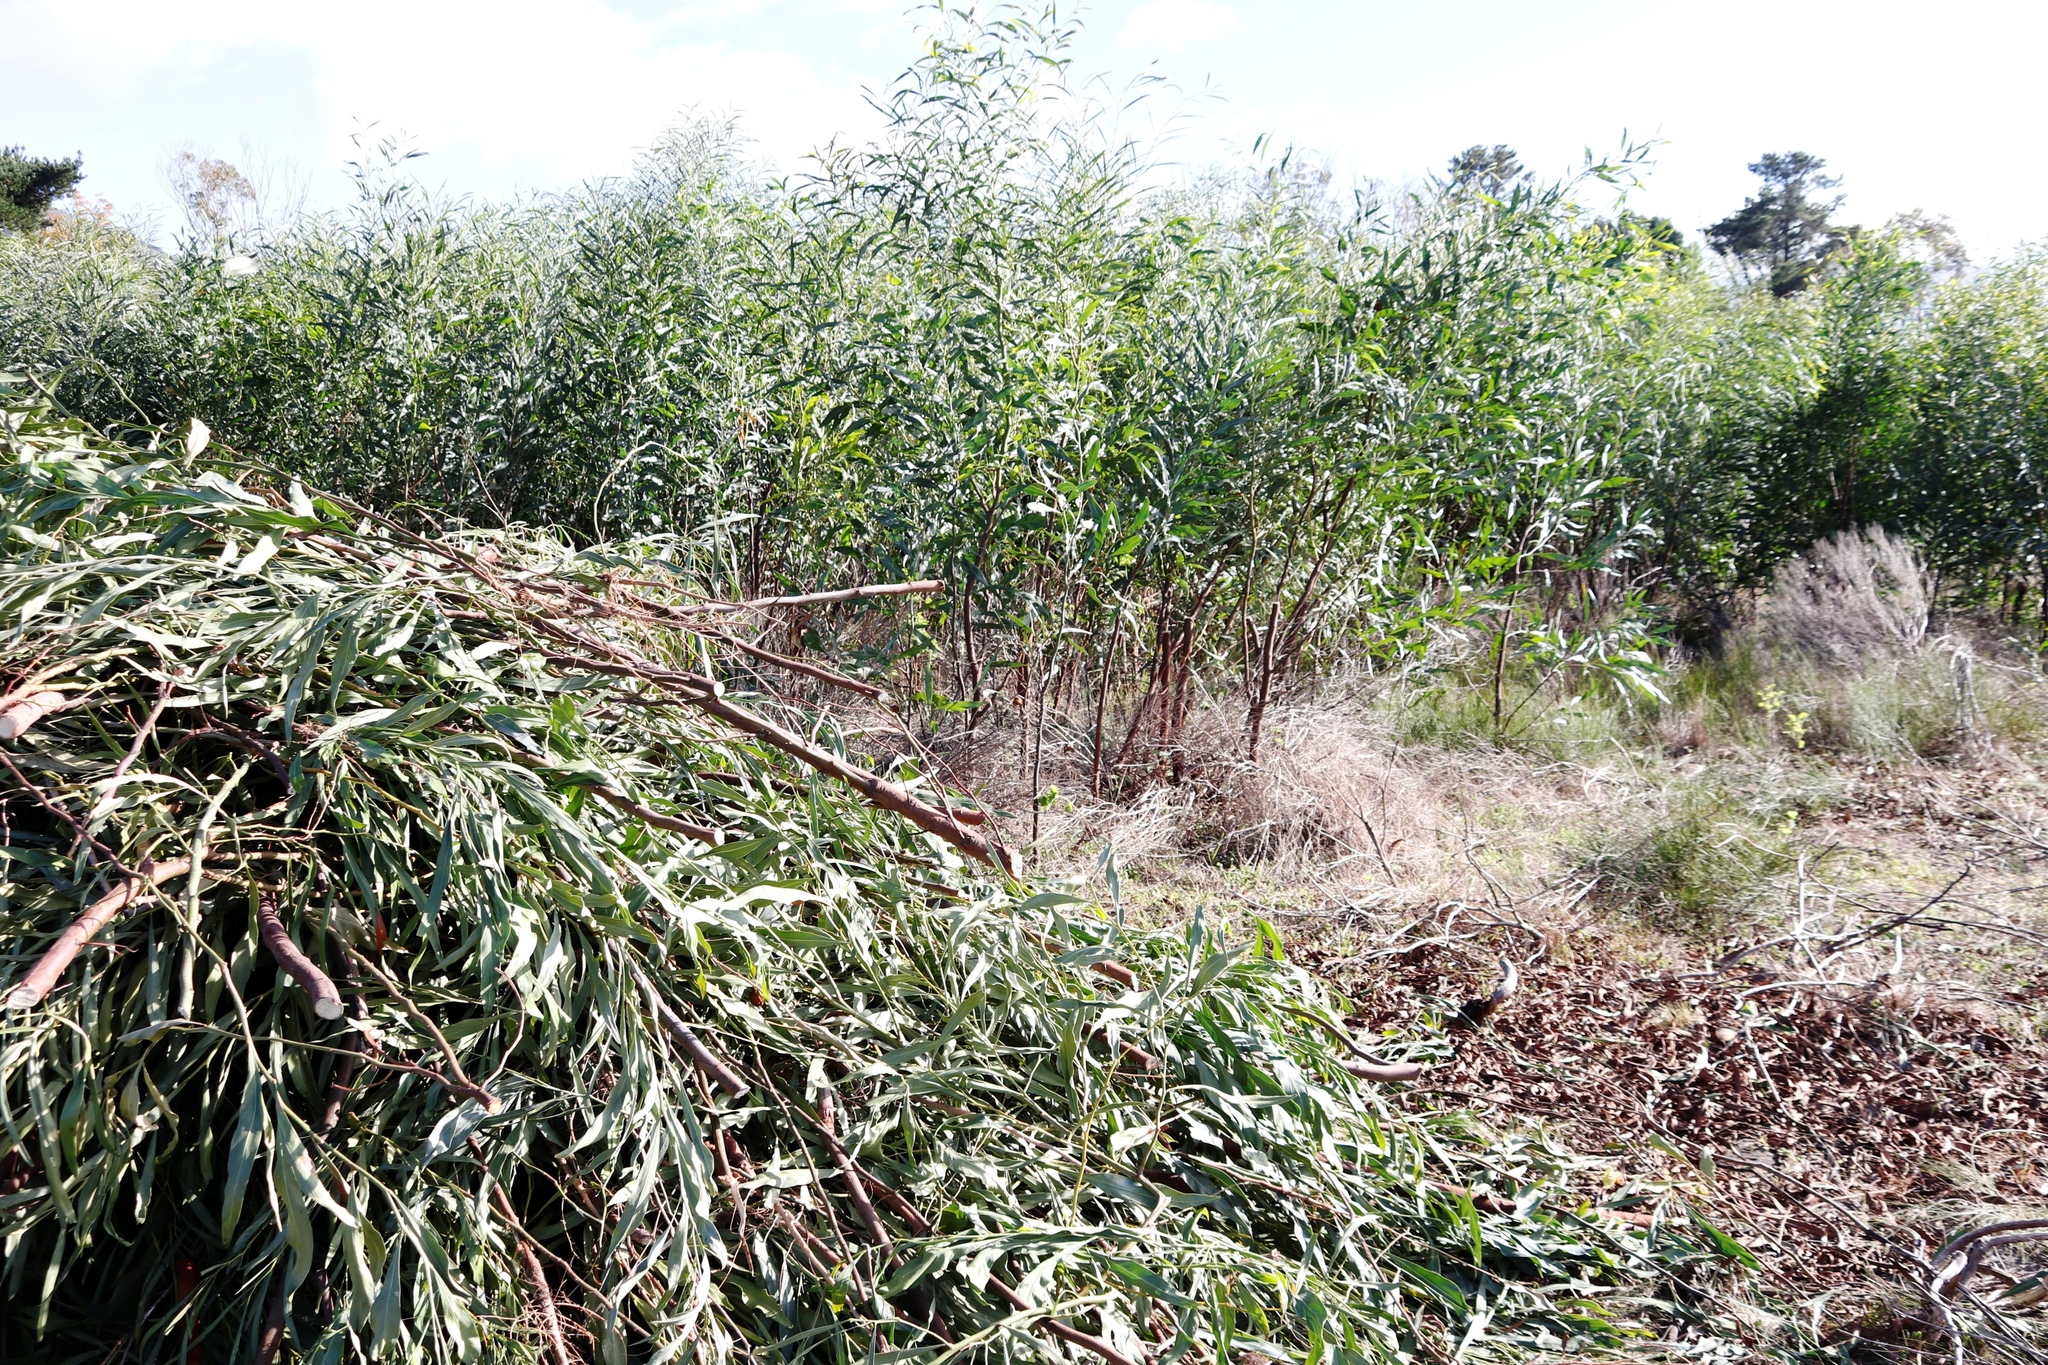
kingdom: Plantae
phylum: Tracheophyta
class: Magnoliopsida
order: Fabales
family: Fabaceae
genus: Acacia
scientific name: Acacia saligna
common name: Orange wattle
